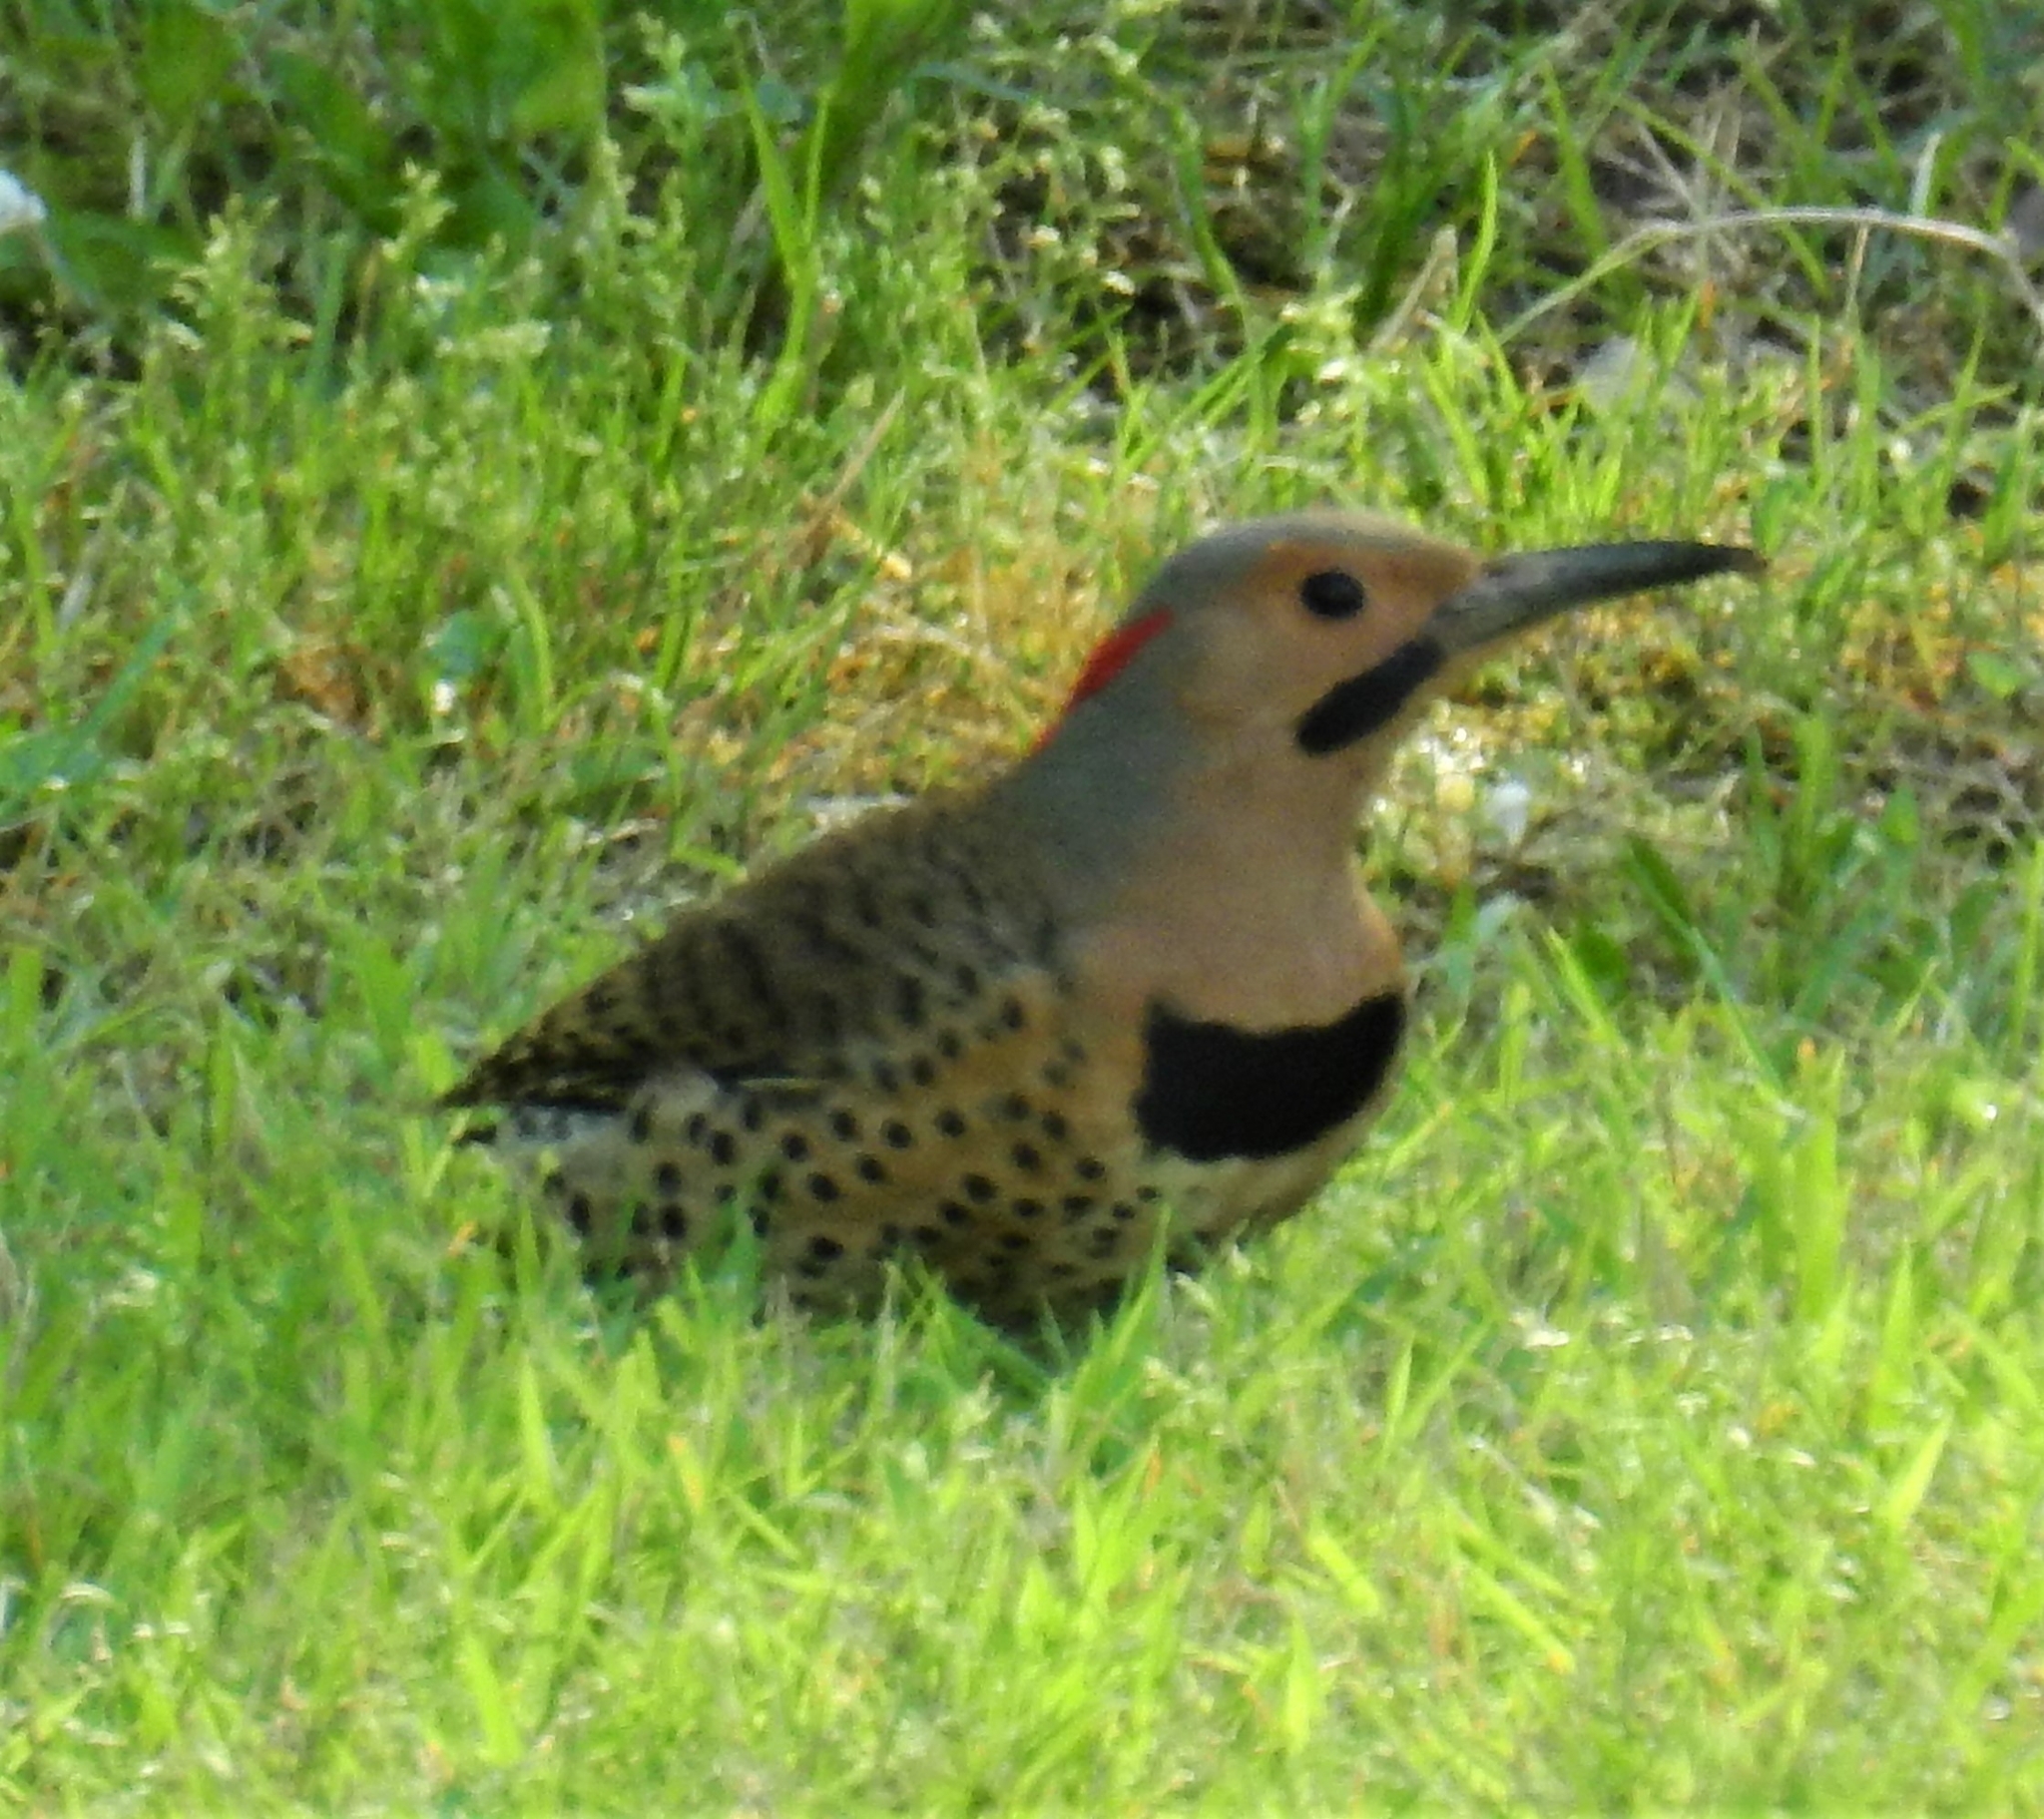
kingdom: Animalia
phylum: Chordata
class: Aves
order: Piciformes
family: Picidae
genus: Colaptes
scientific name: Colaptes auratus
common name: Northern flicker
